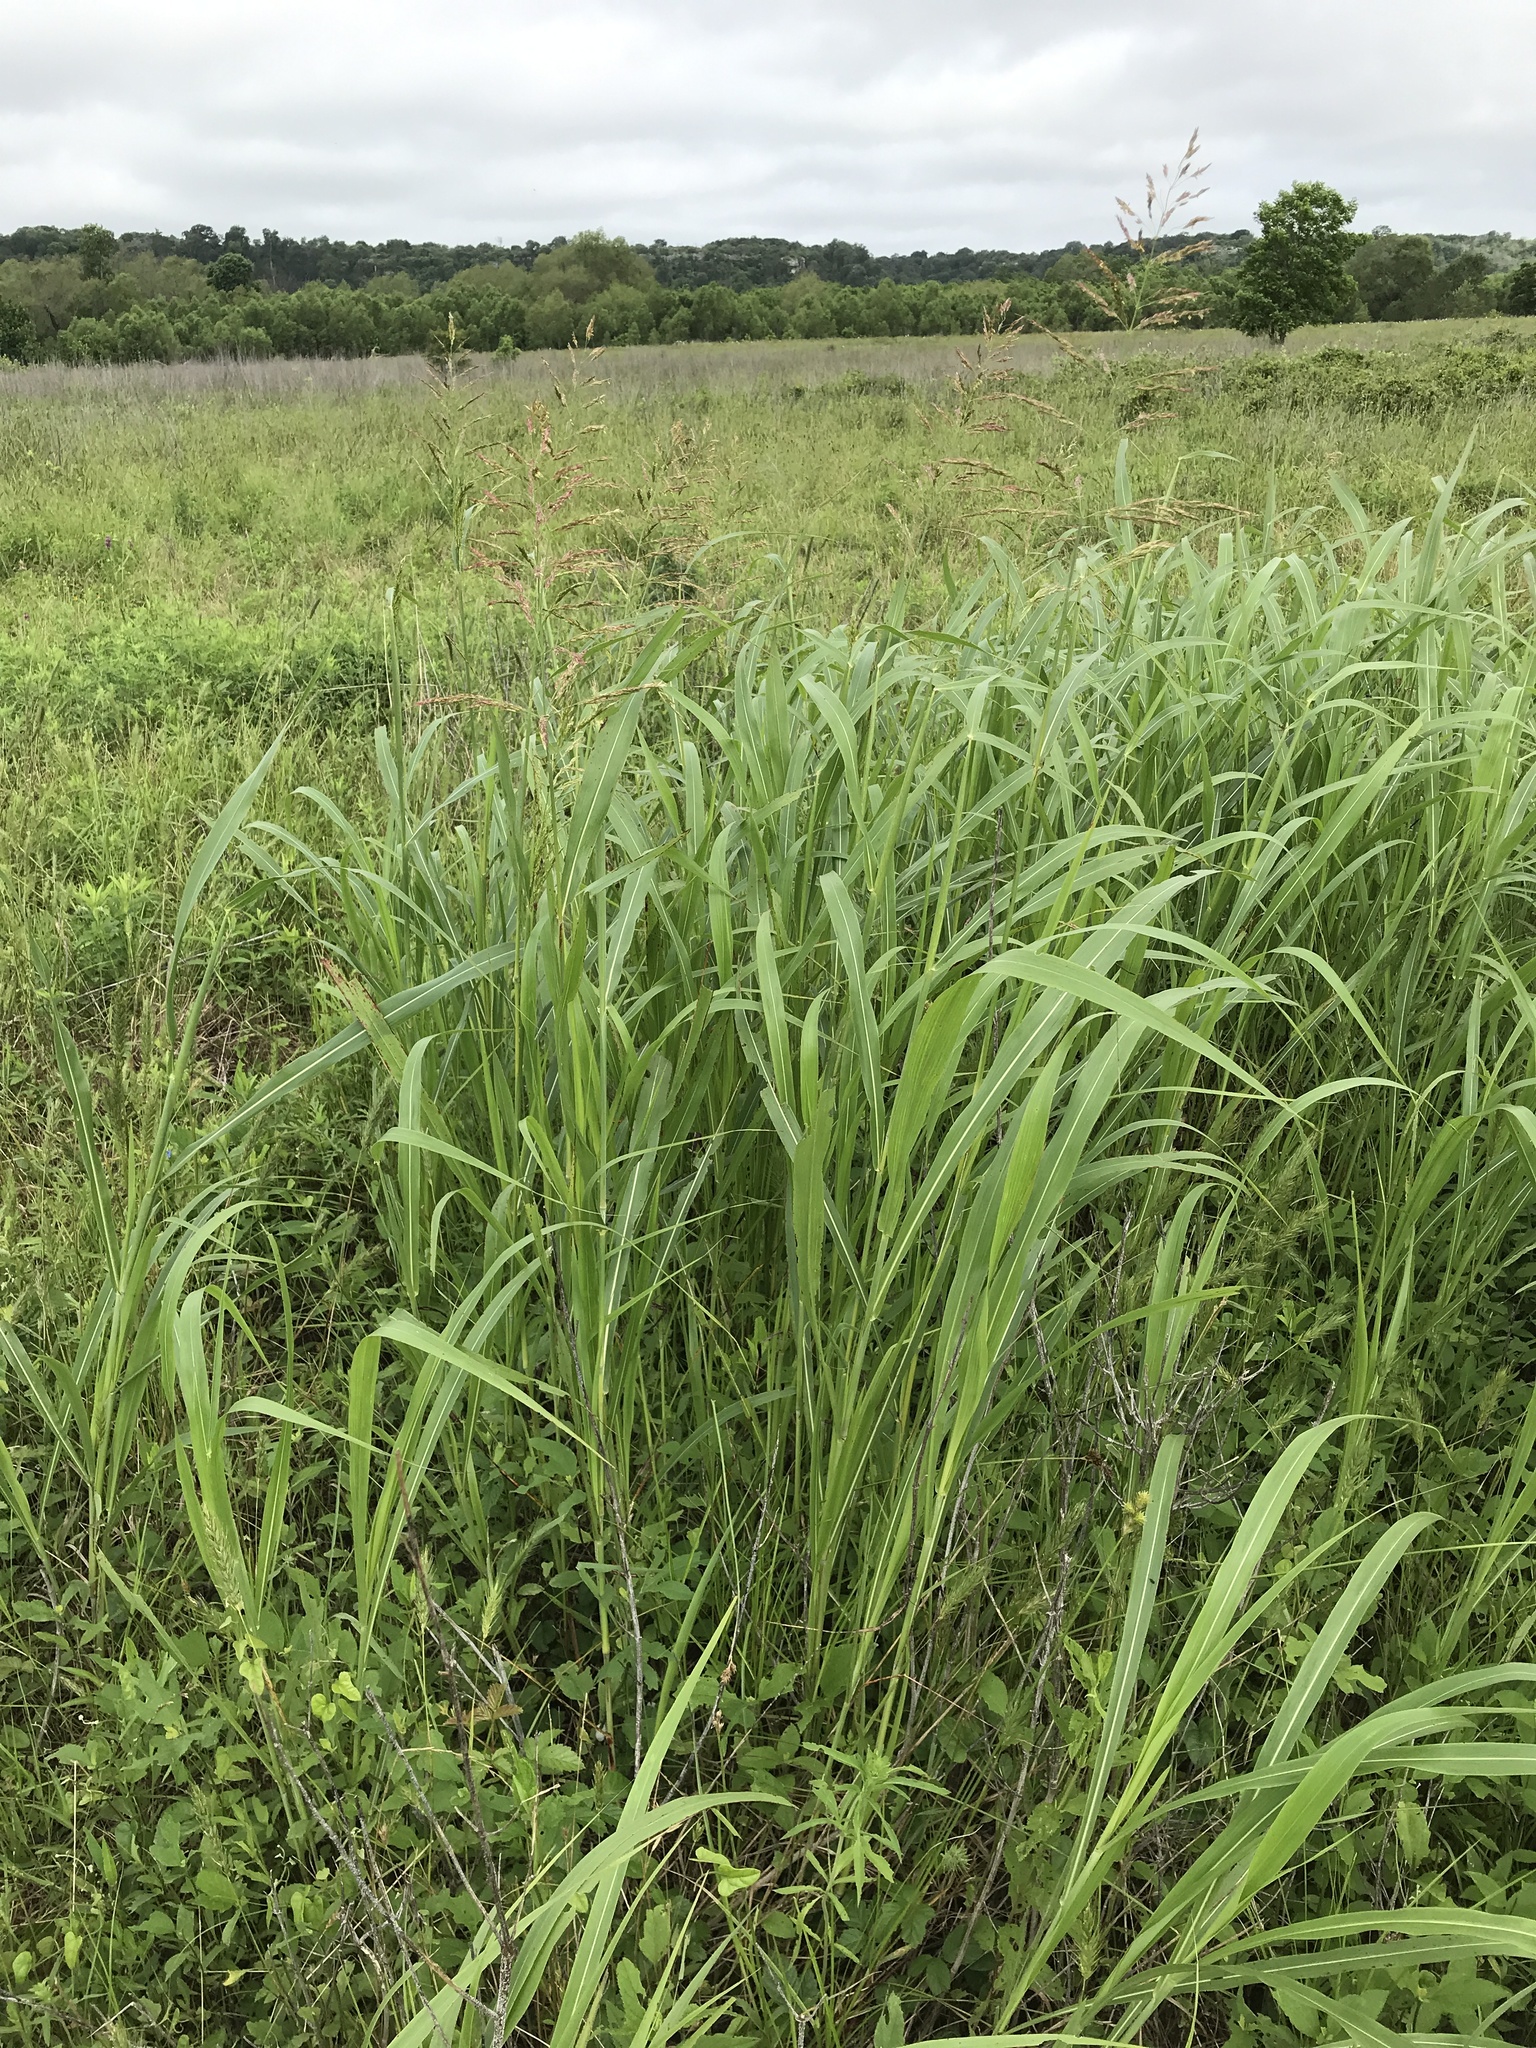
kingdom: Plantae
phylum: Tracheophyta
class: Liliopsida
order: Poales
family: Poaceae
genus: Sorghum
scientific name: Sorghum halepense
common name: Johnson-grass
